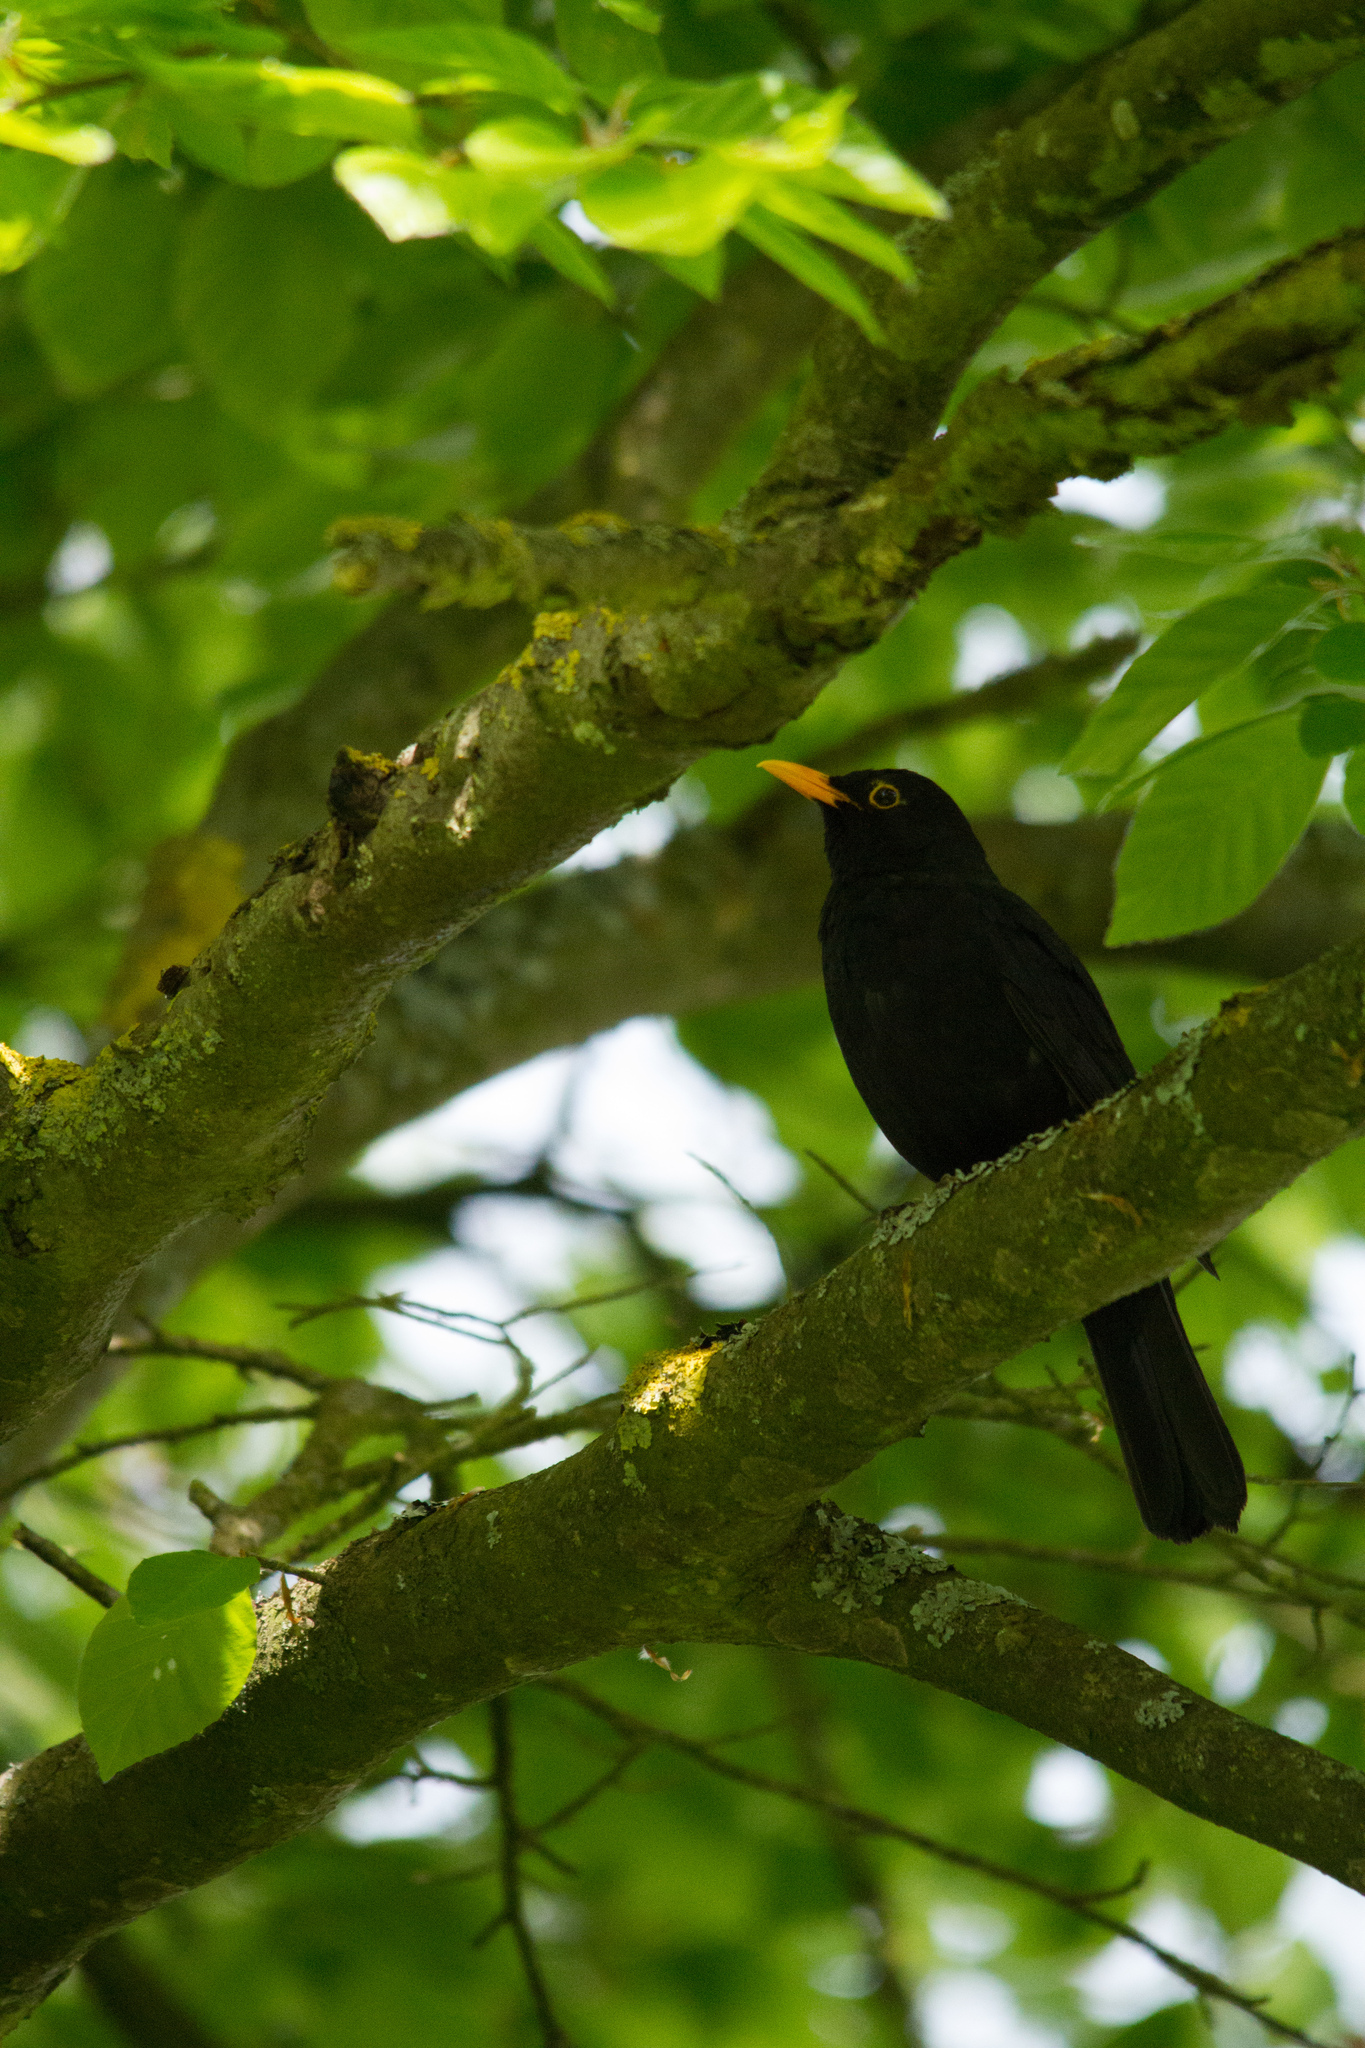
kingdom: Animalia
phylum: Chordata
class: Aves
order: Passeriformes
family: Turdidae
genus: Turdus
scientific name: Turdus merula
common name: Common blackbird
